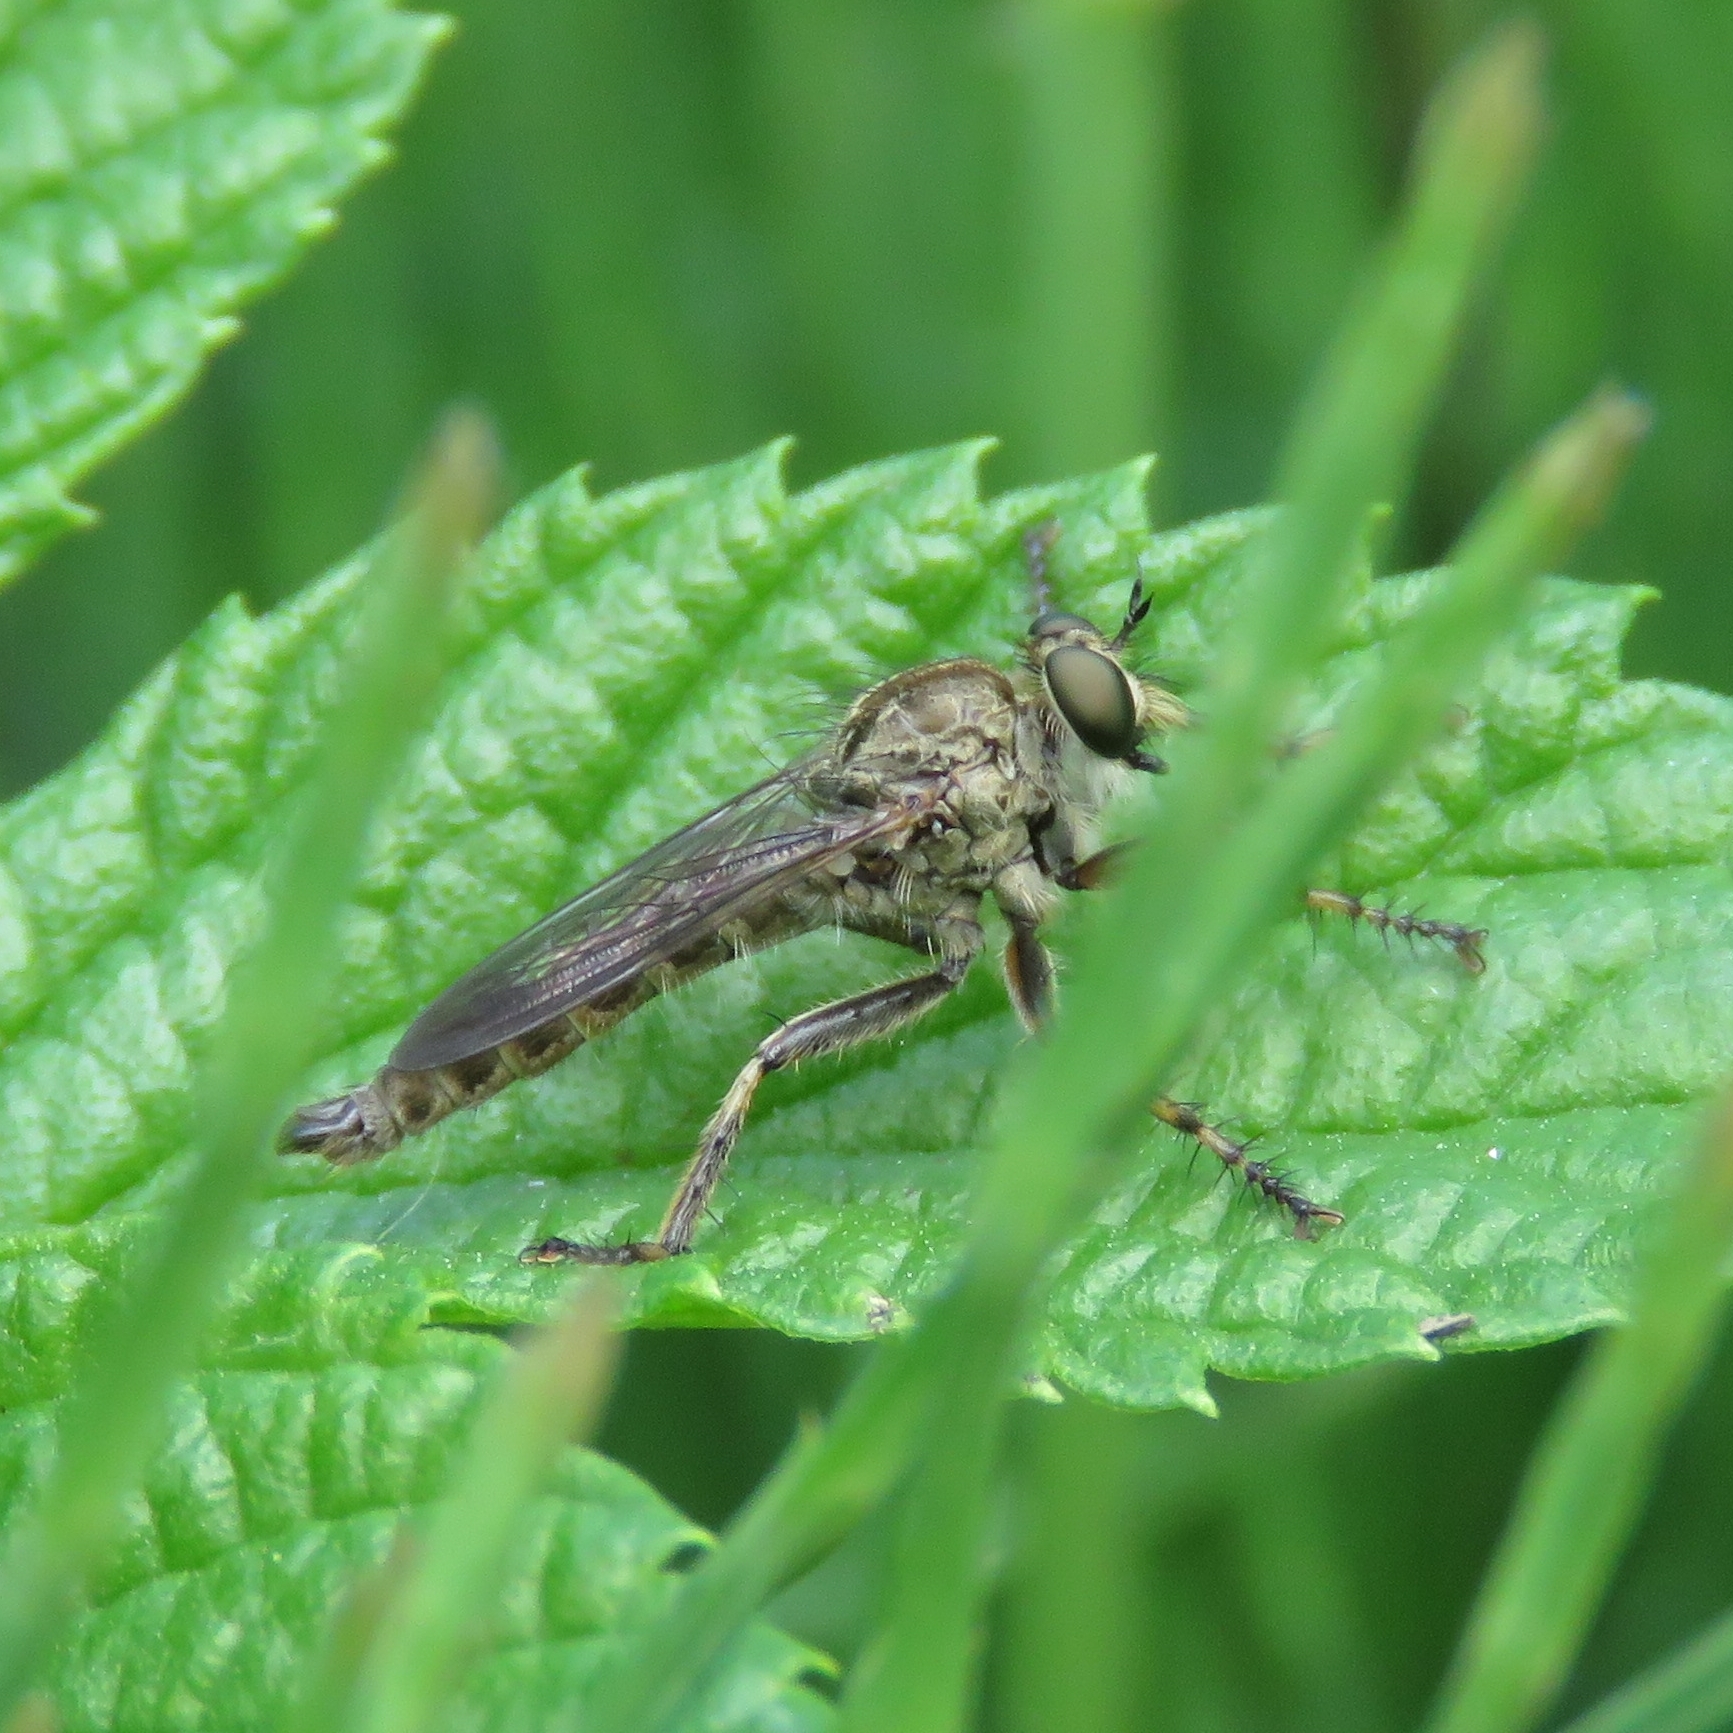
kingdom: Animalia
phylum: Arthropoda
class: Insecta
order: Diptera
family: Asilidae
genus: Epitriptus
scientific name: Epitriptus cingulatus
